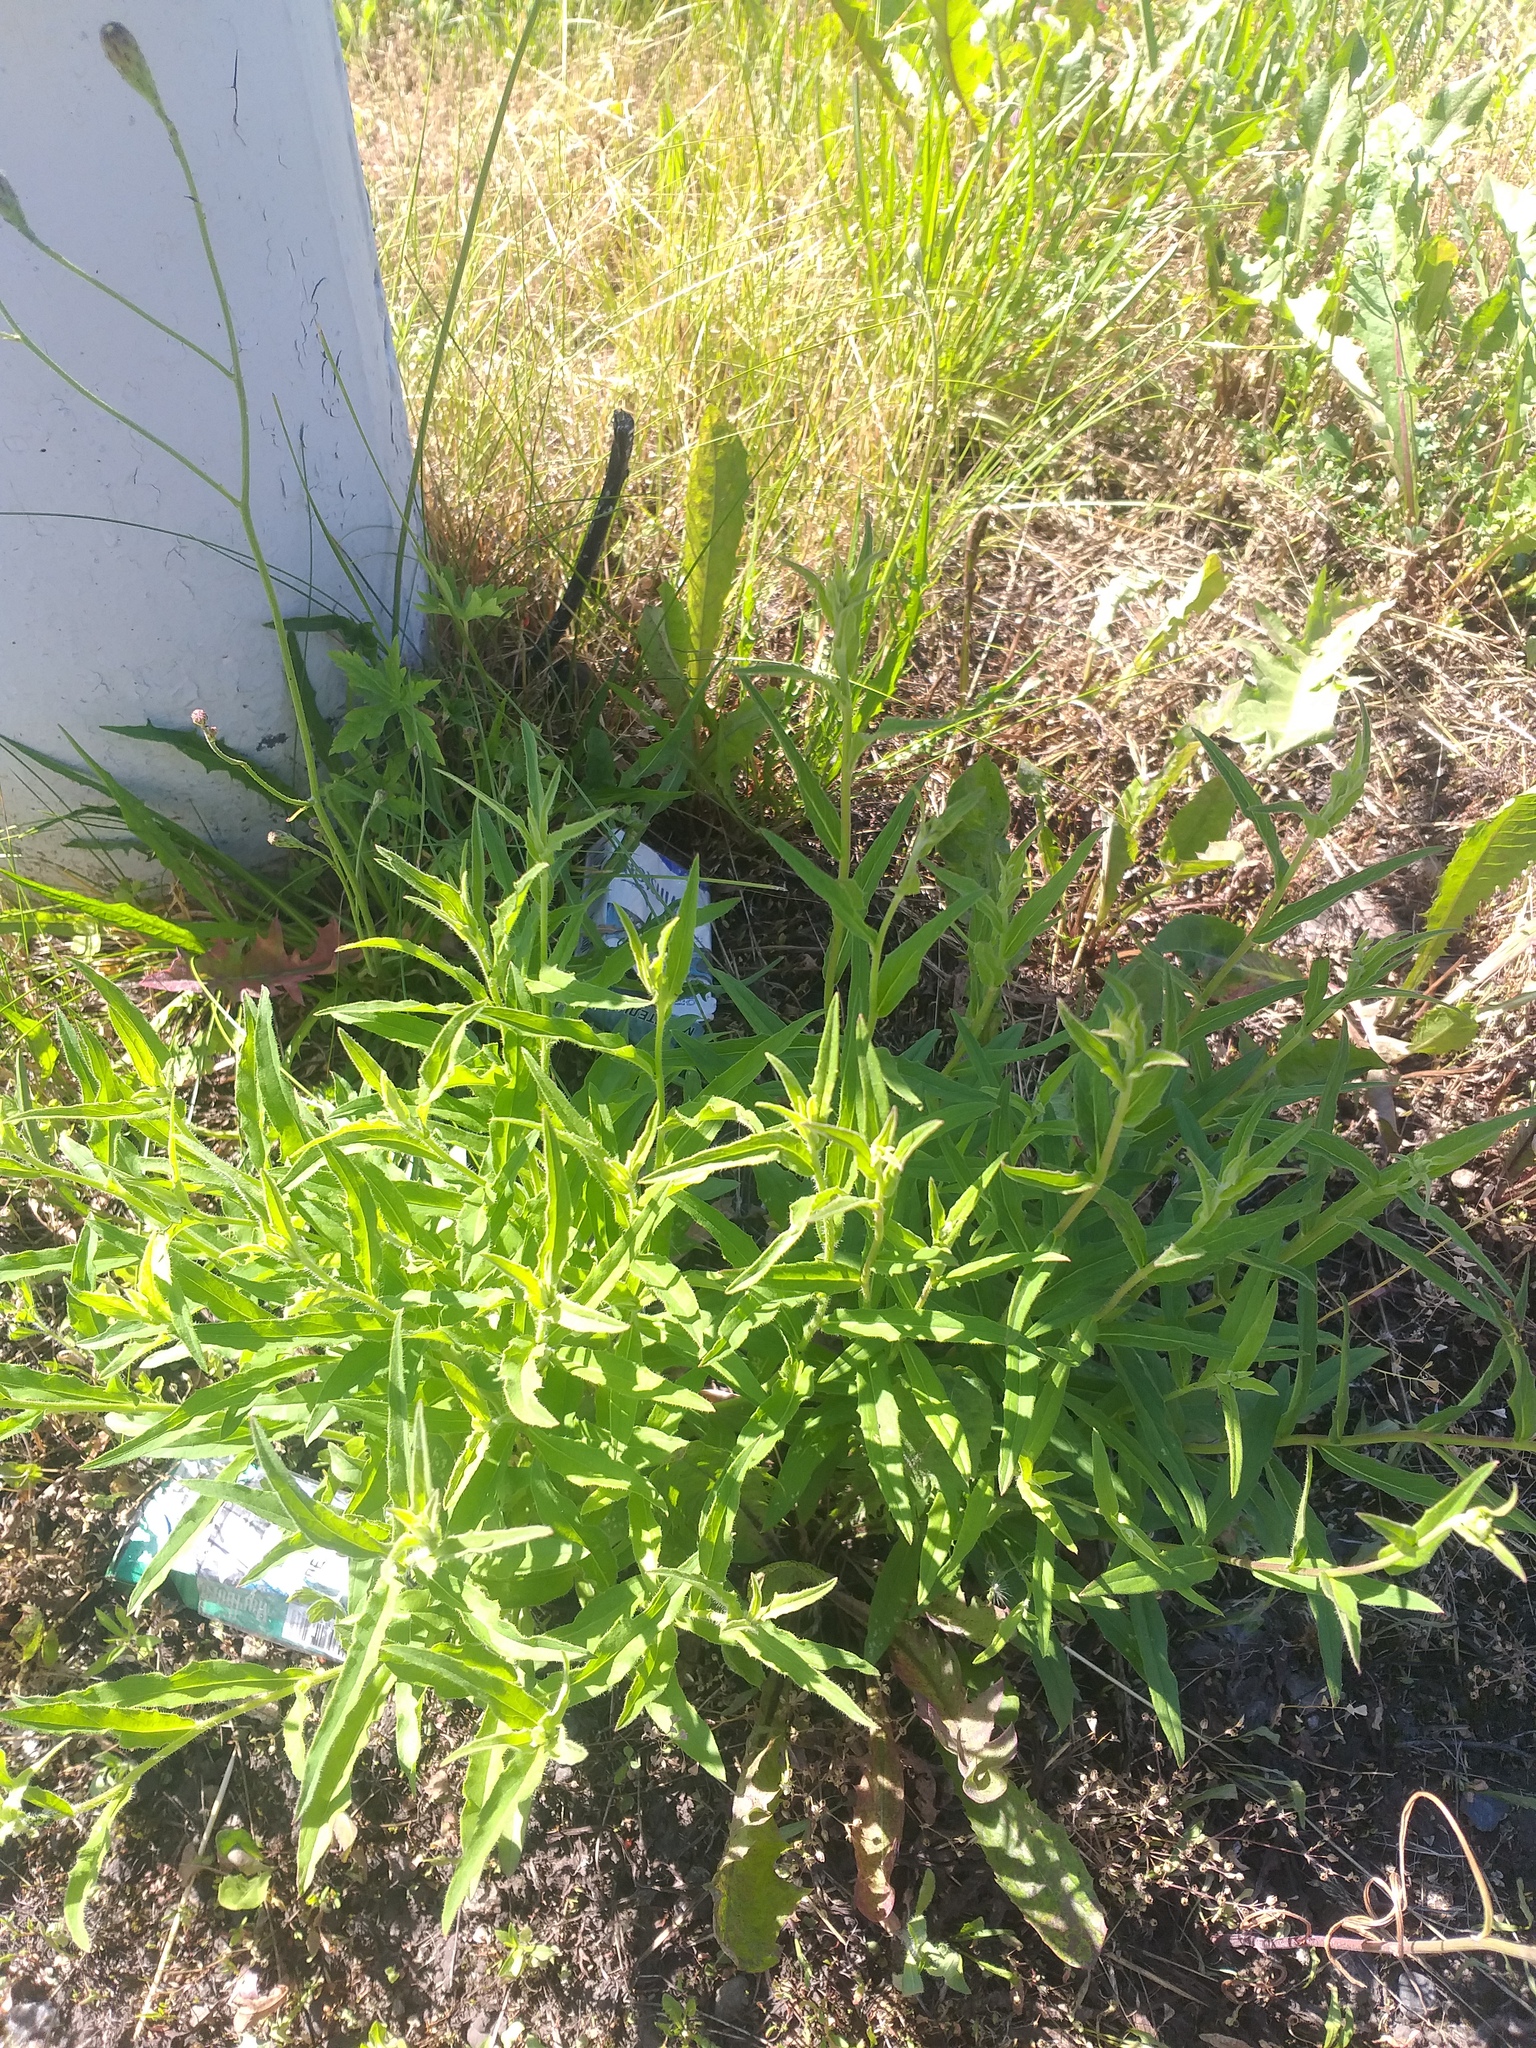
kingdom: Plantae
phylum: Tracheophyta
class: Magnoliopsida
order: Asterales
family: Asteraceae
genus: Hieracium
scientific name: Hieracium umbellatum
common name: Northern hawkweed
